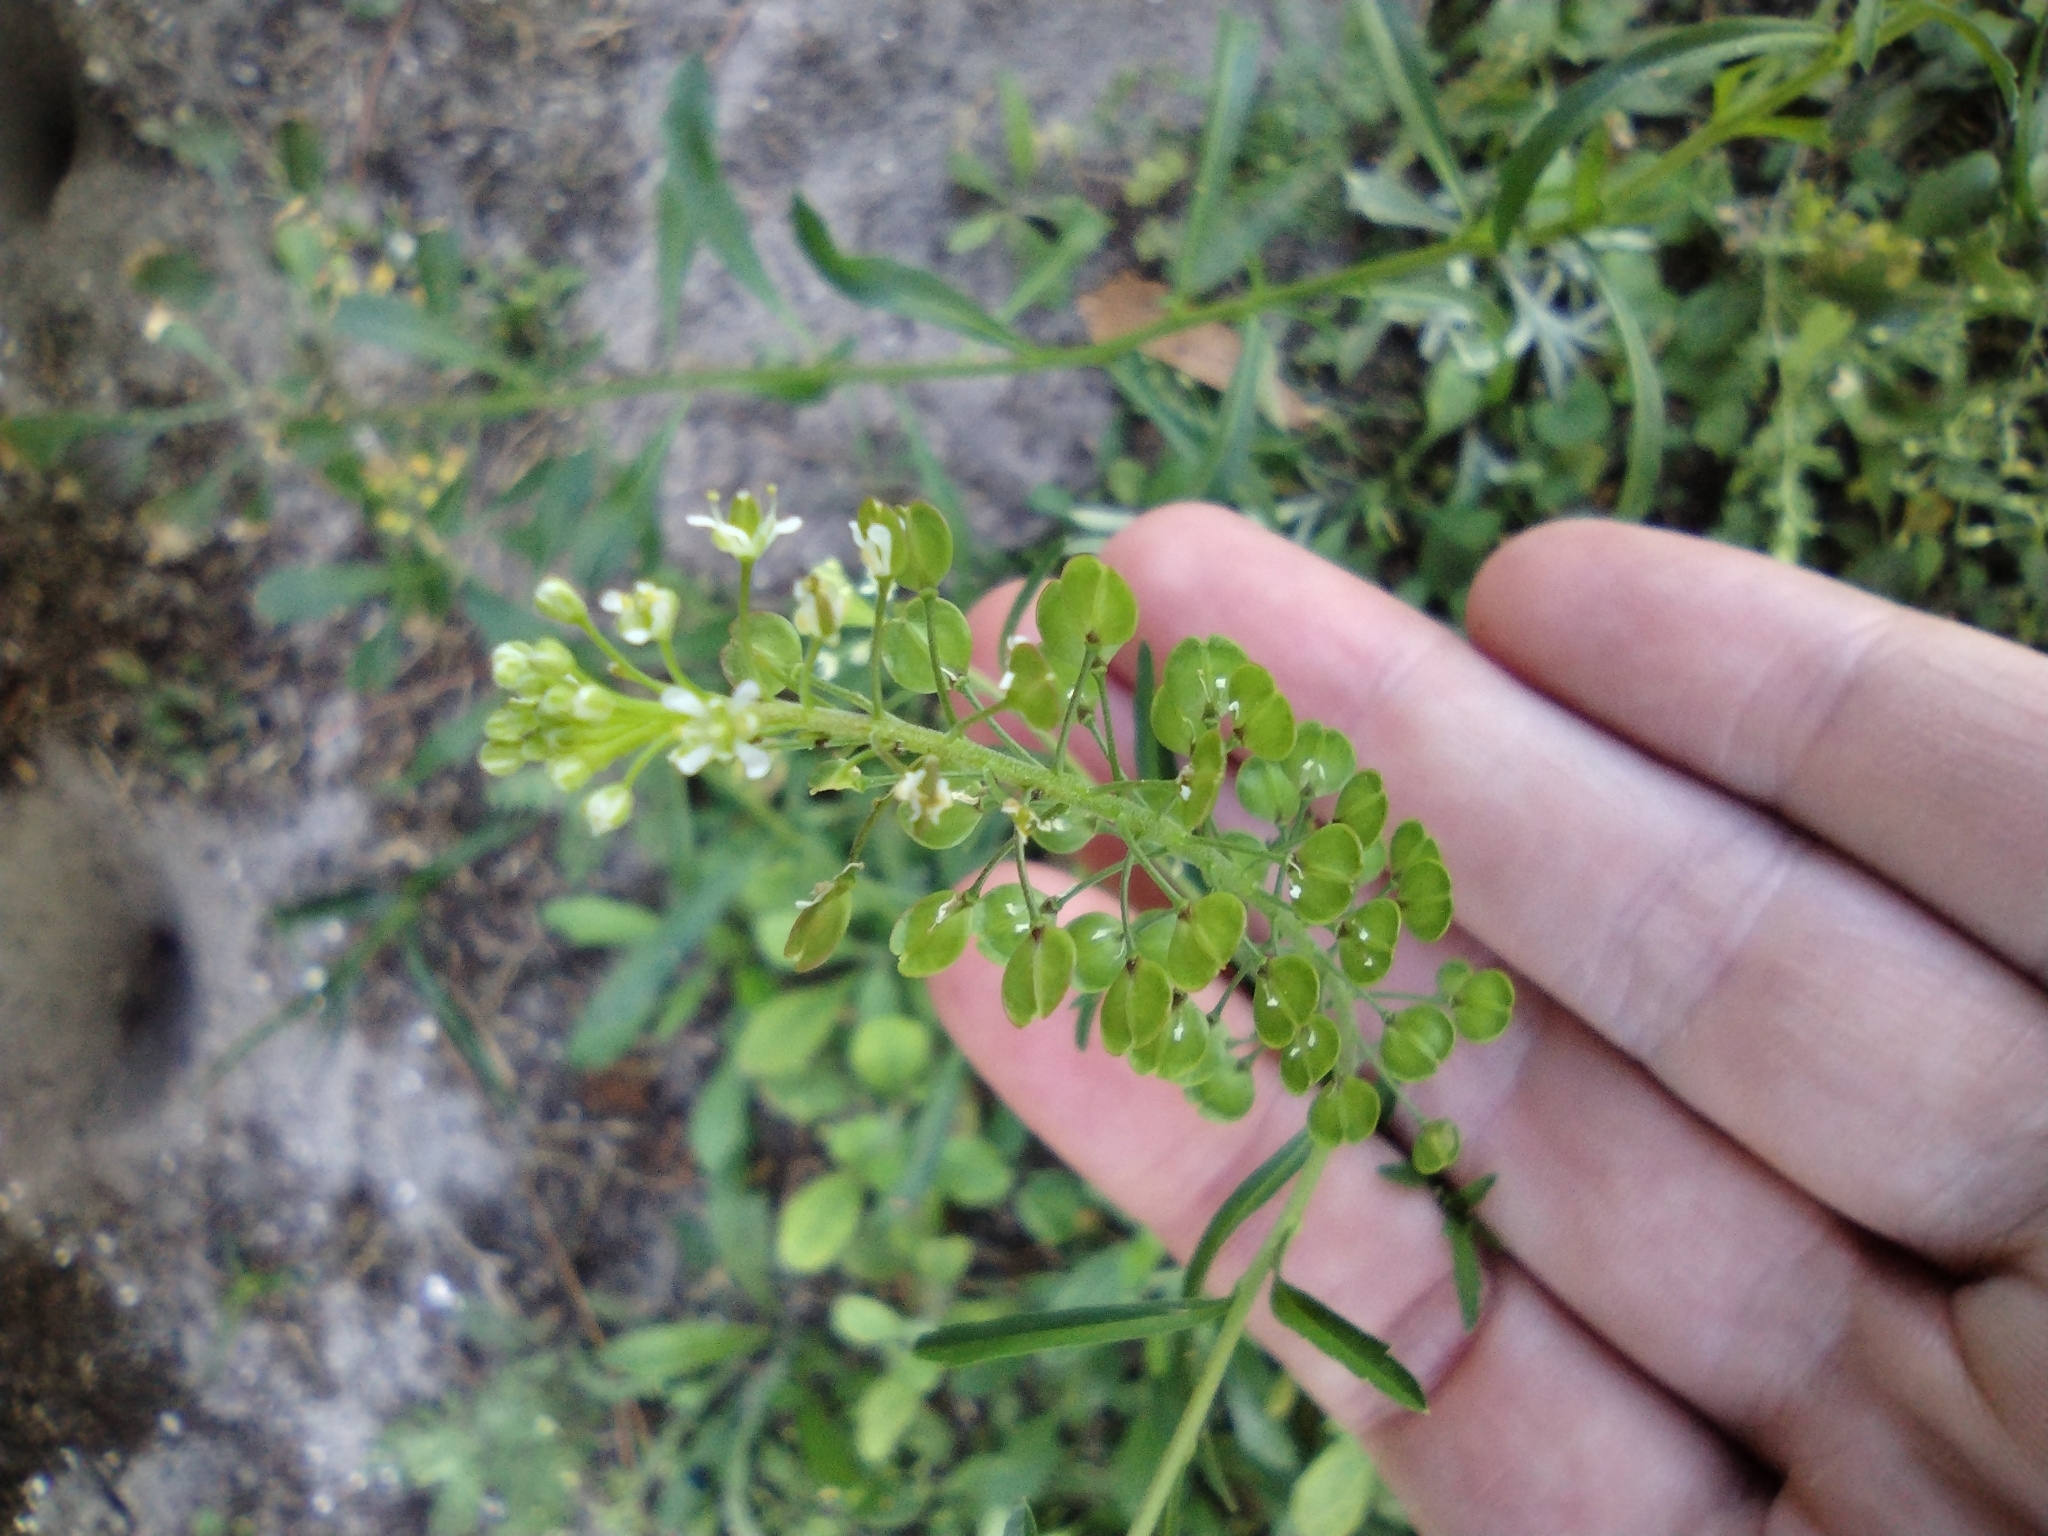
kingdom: Plantae
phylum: Tracheophyta
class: Magnoliopsida
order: Brassicales
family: Brassicaceae
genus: Lepidium
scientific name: Lepidium virginicum
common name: Least pepperwort
